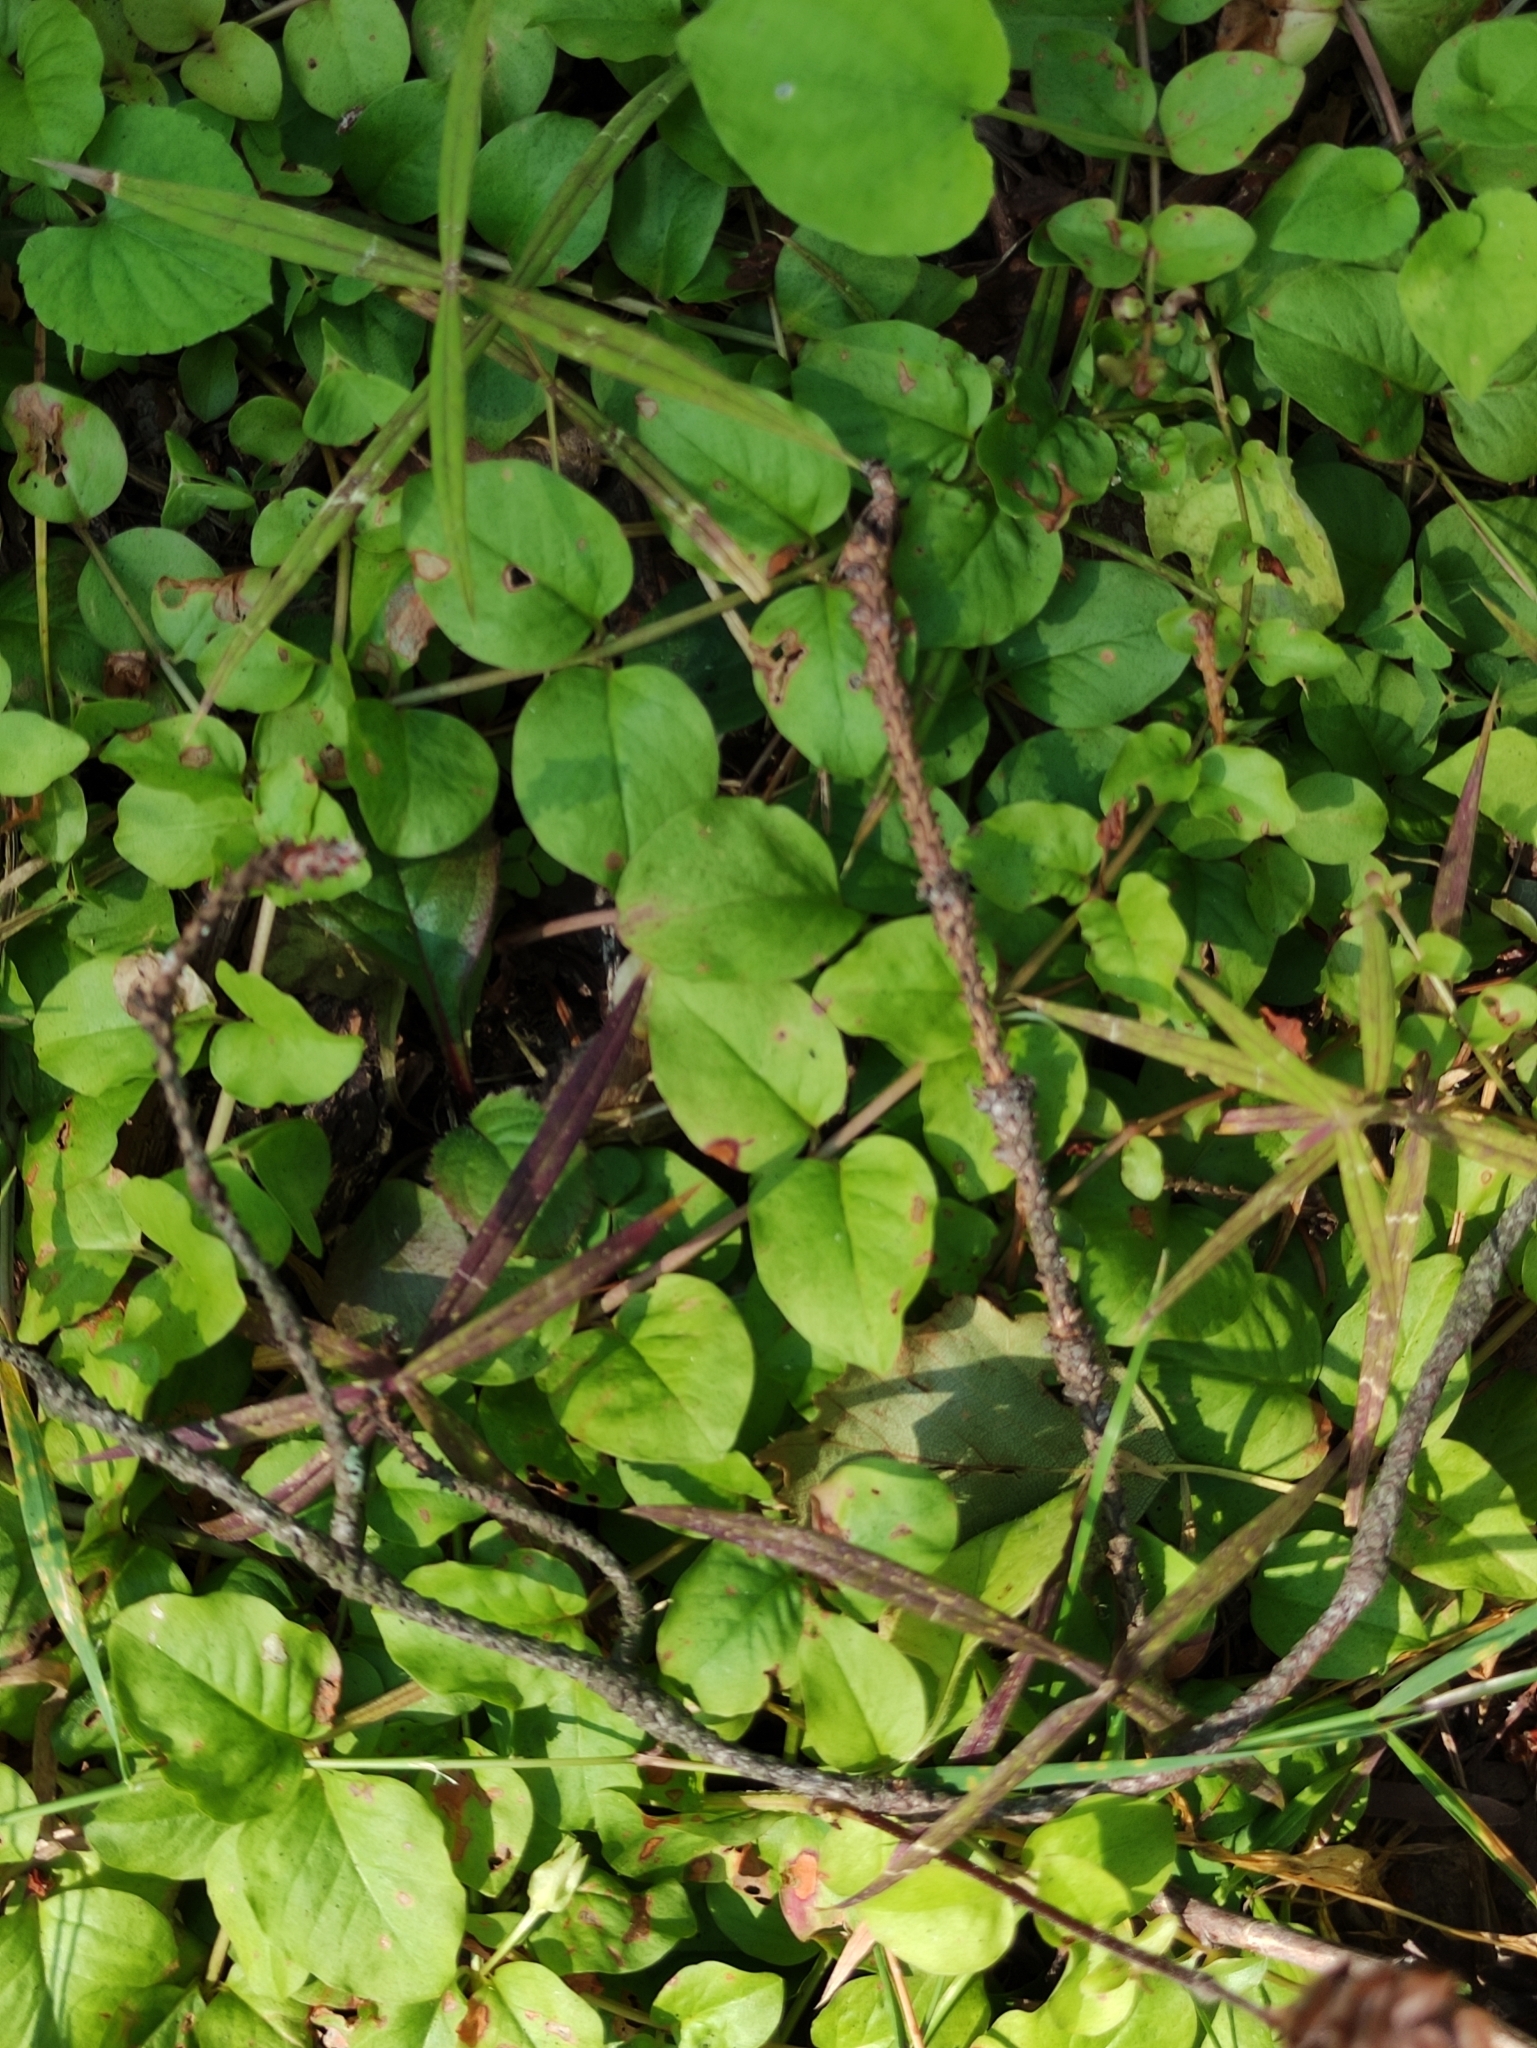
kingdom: Plantae
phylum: Tracheophyta
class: Magnoliopsida
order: Ericales
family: Primulaceae
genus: Lysimachia
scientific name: Lysimachia nummularia
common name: Moneywort
